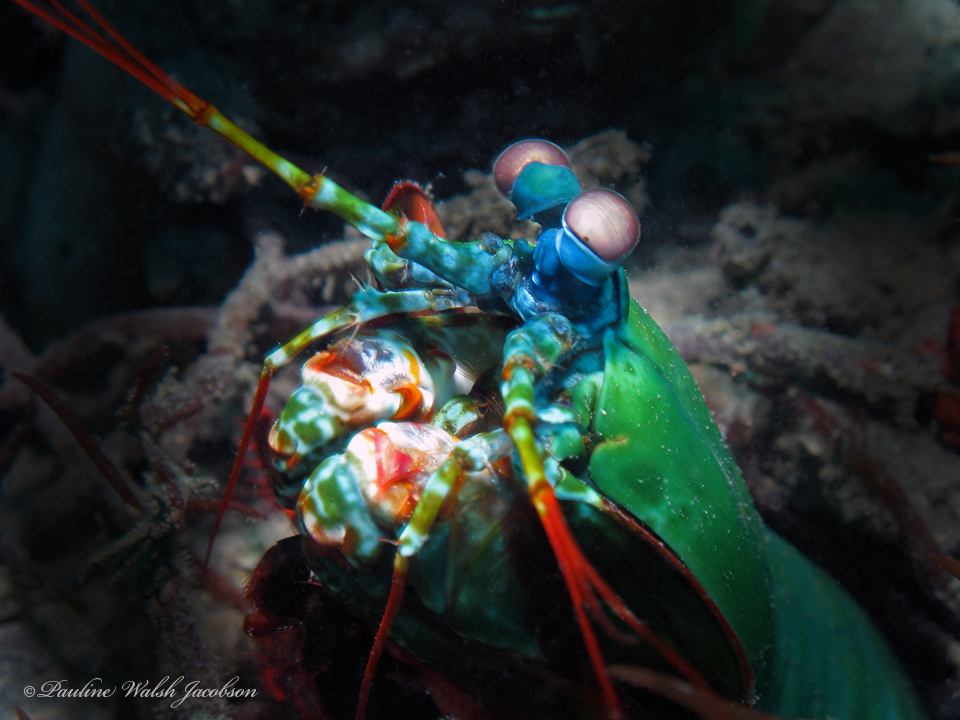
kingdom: Animalia
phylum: Arthropoda
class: Malacostraca
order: Stomatopoda
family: Odontodactylidae
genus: Odontodactylus
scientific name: Odontodactylus scyllarus
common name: Peacock mantis shrimp
